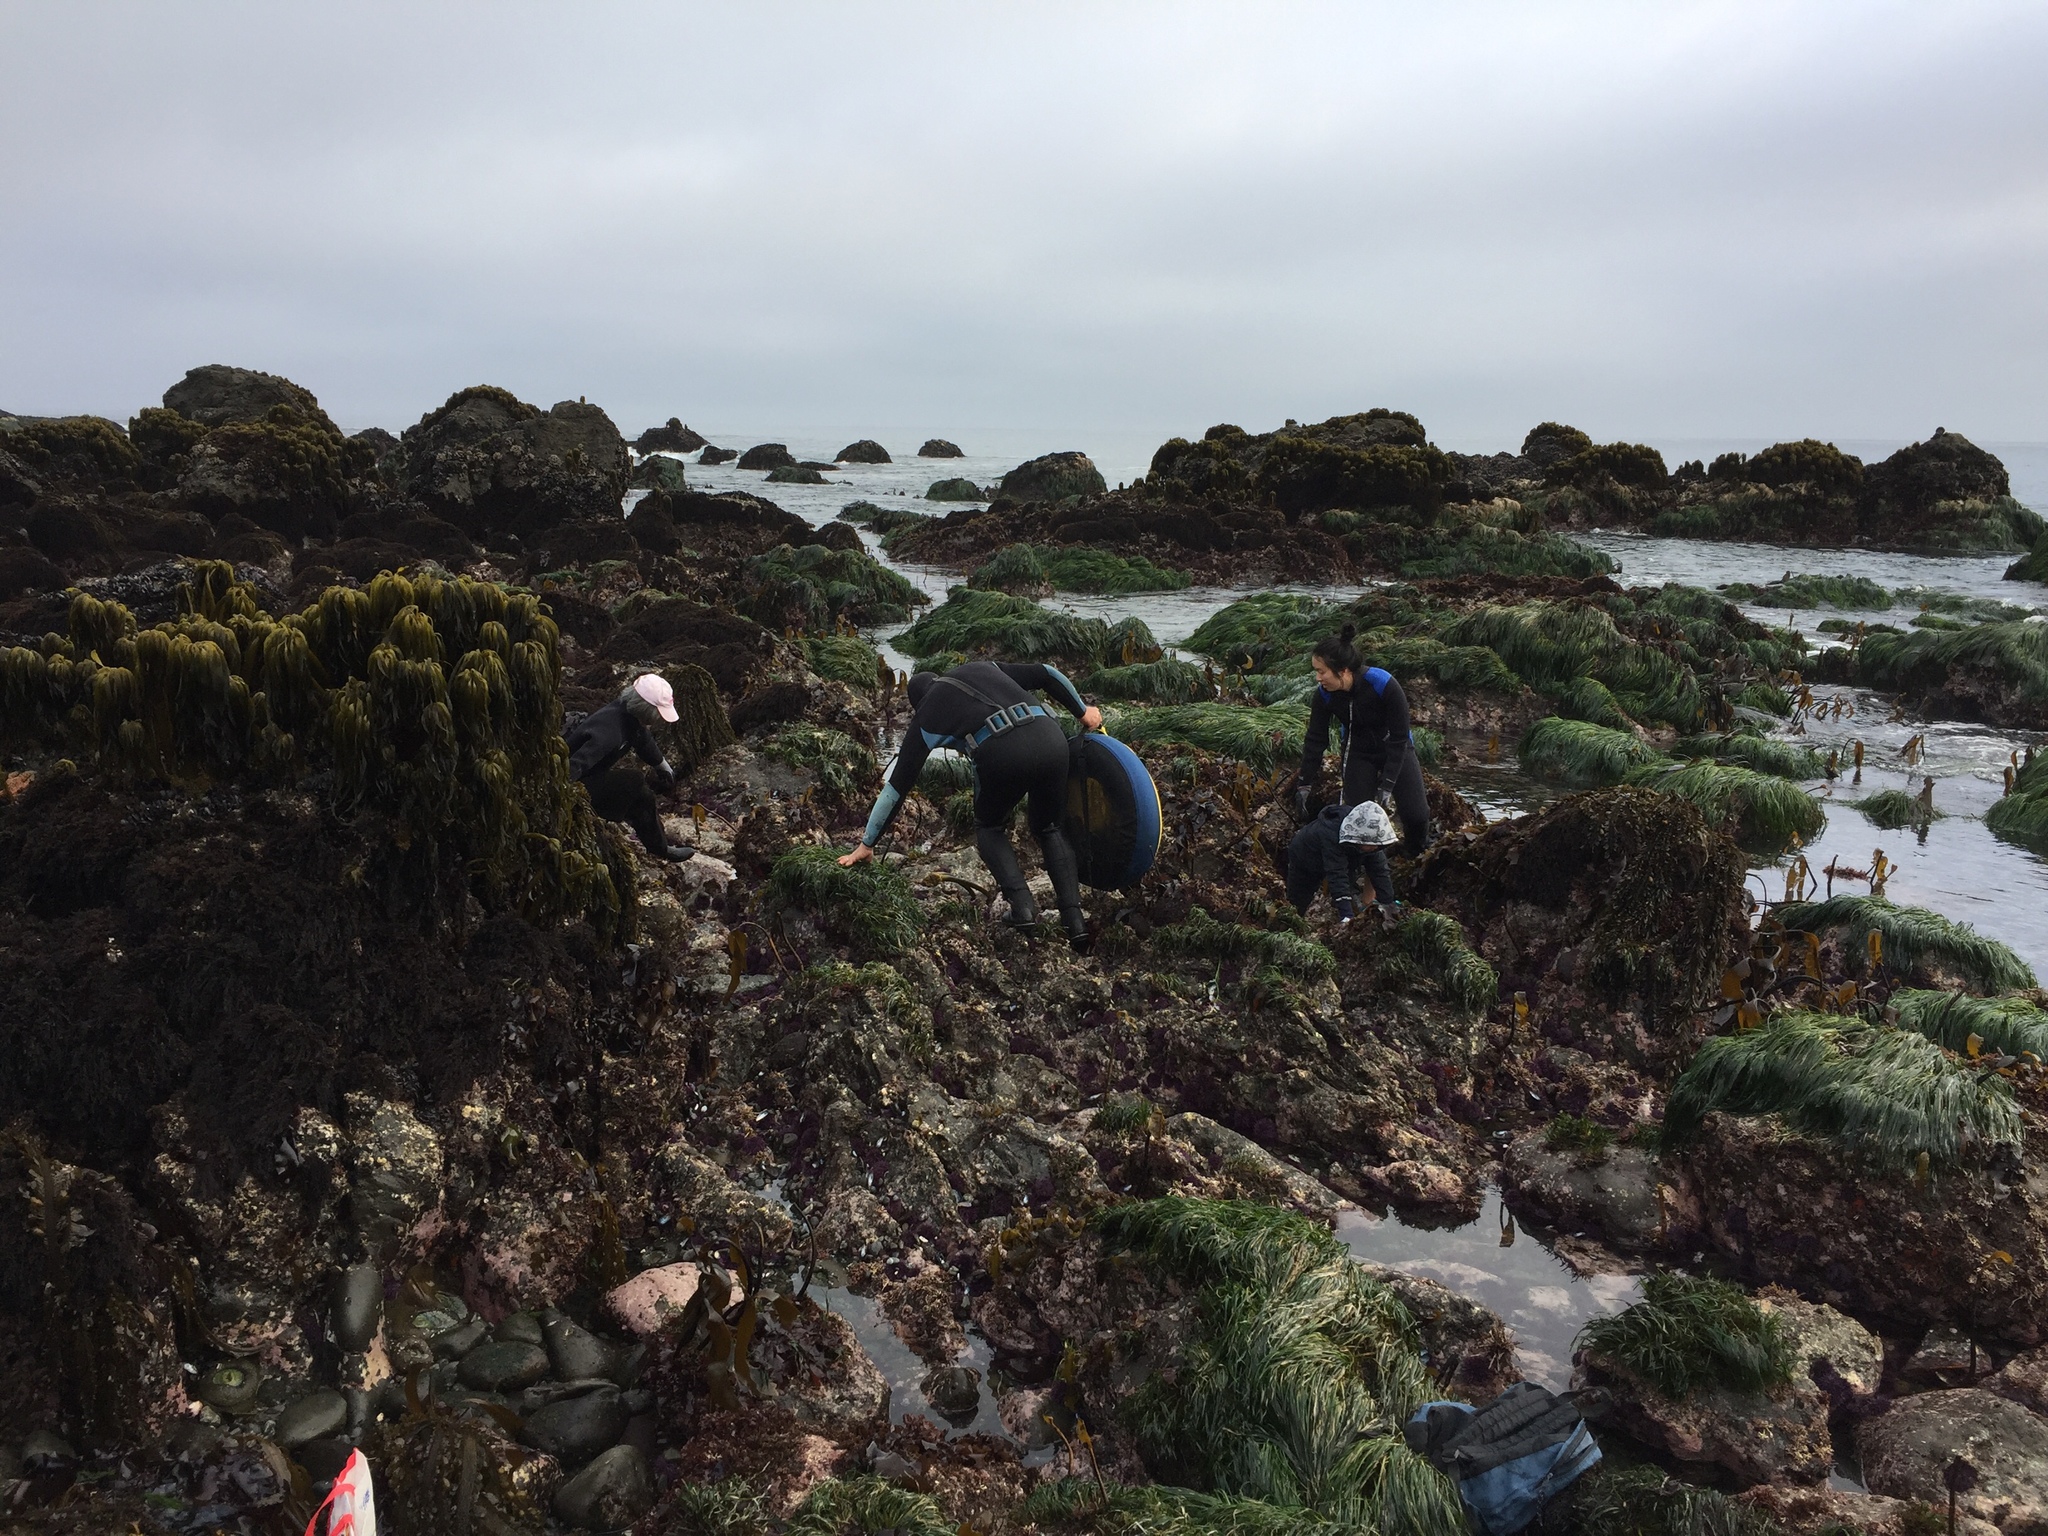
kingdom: Chromista
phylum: Ochrophyta
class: Phaeophyceae
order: Laminariales
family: Laminariaceae
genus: Postelsia
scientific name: Postelsia palmiformis
